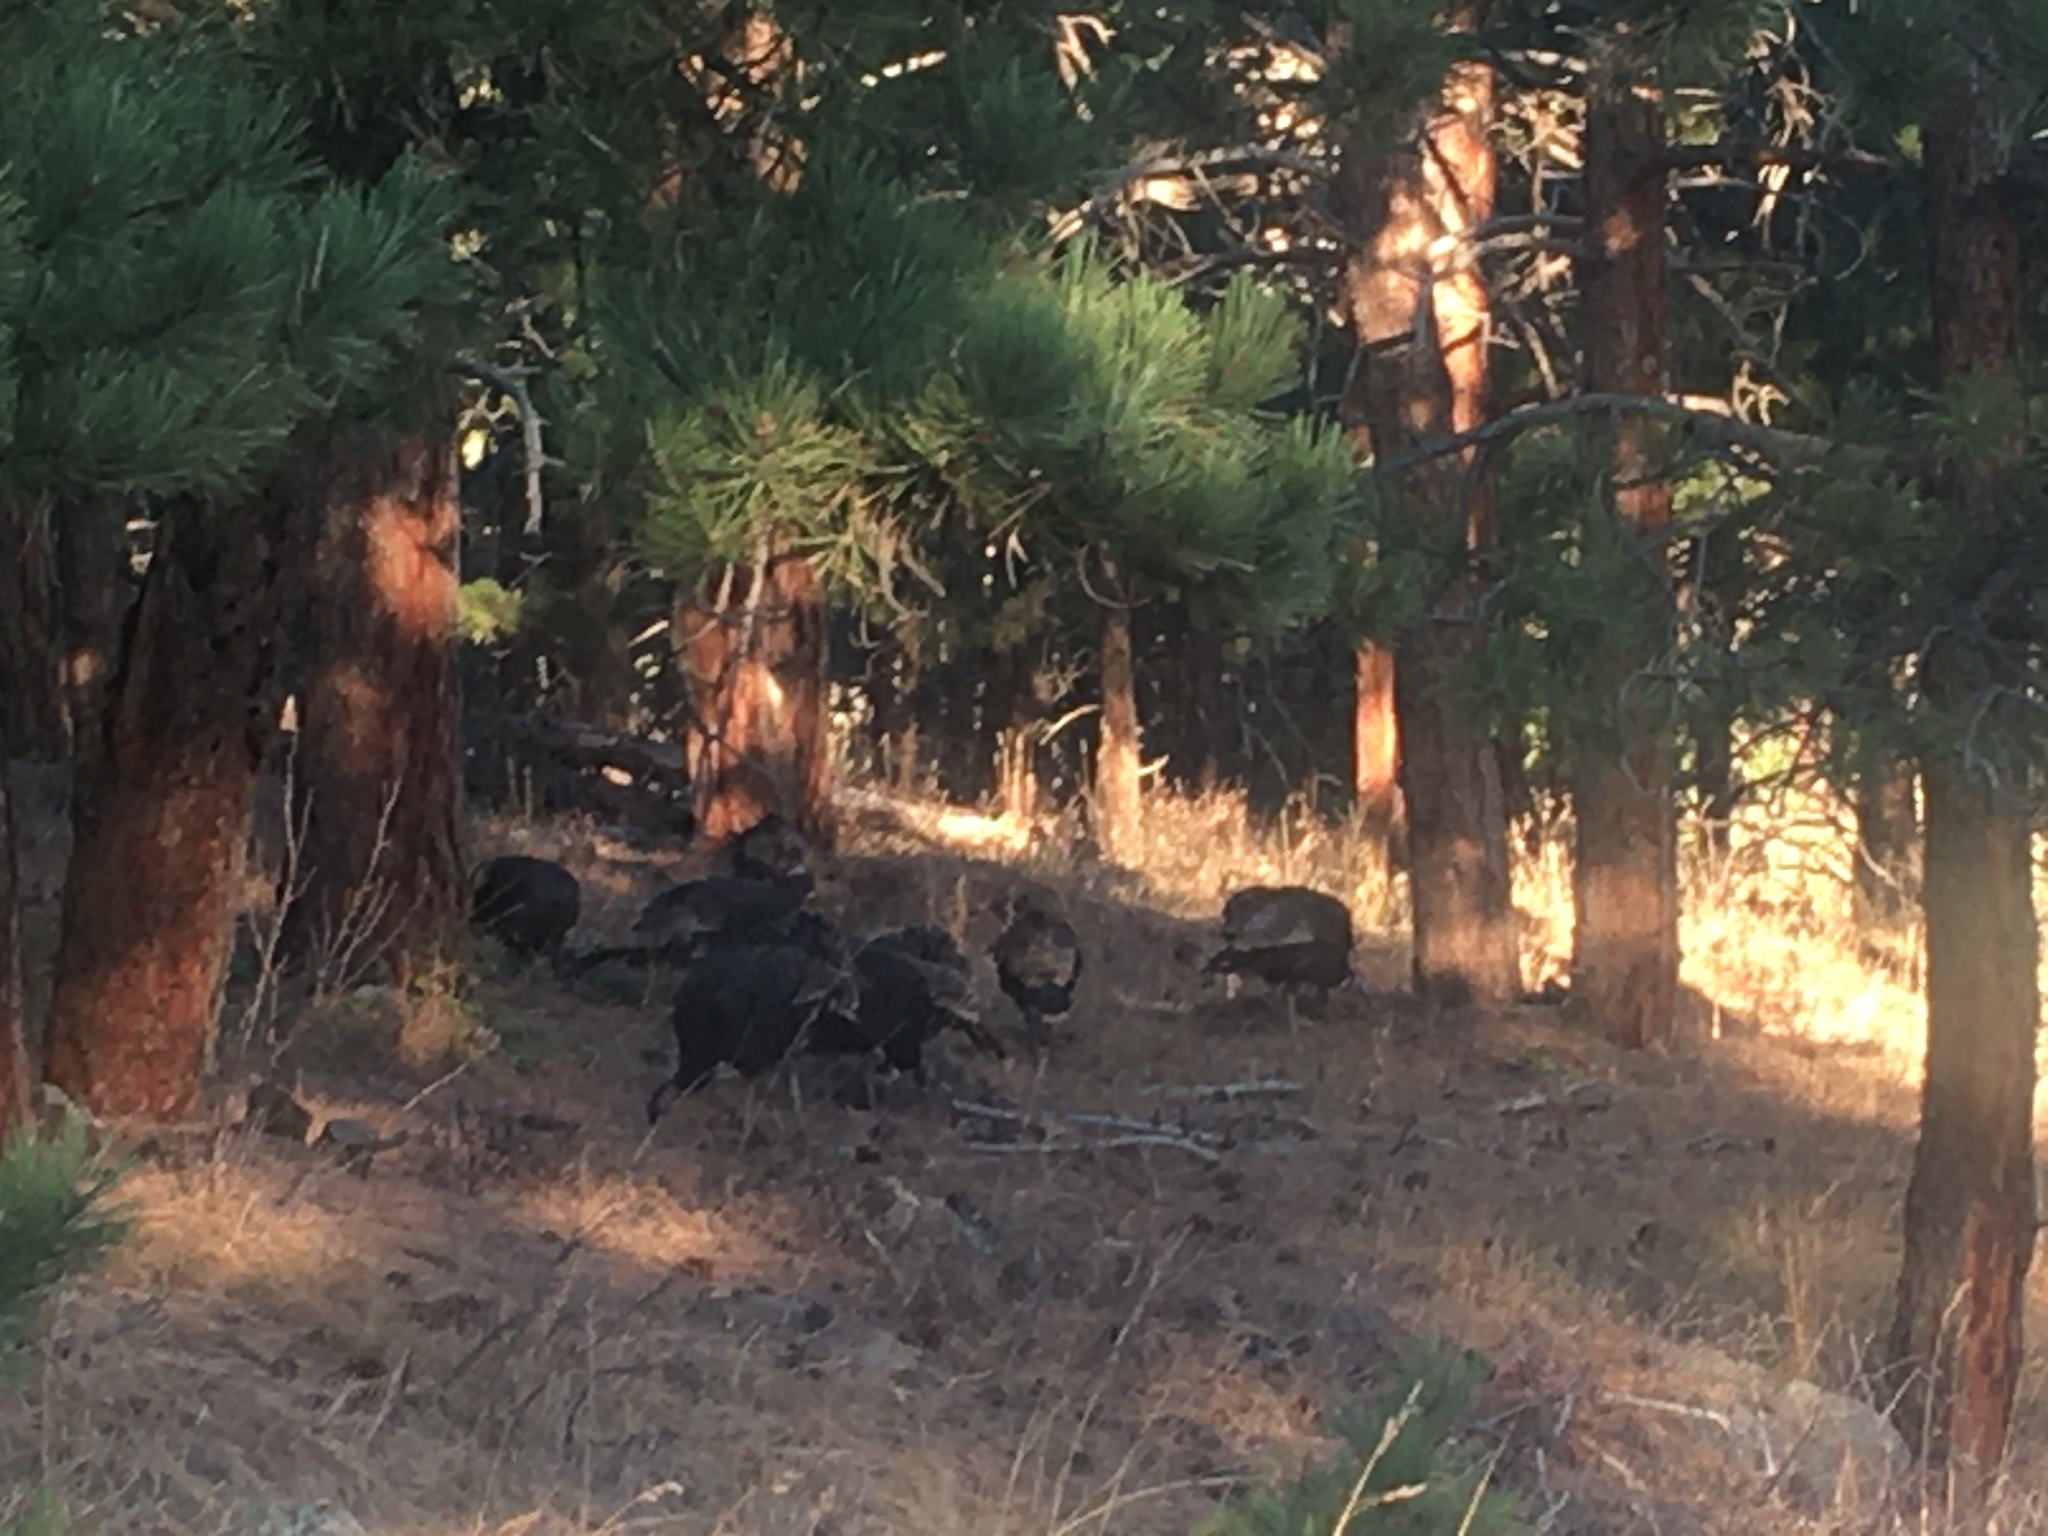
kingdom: Animalia
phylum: Chordata
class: Aves
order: Galliformes
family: Phasianidae
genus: Meleagris
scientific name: Meleagris gallopavo
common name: Wild turkey
